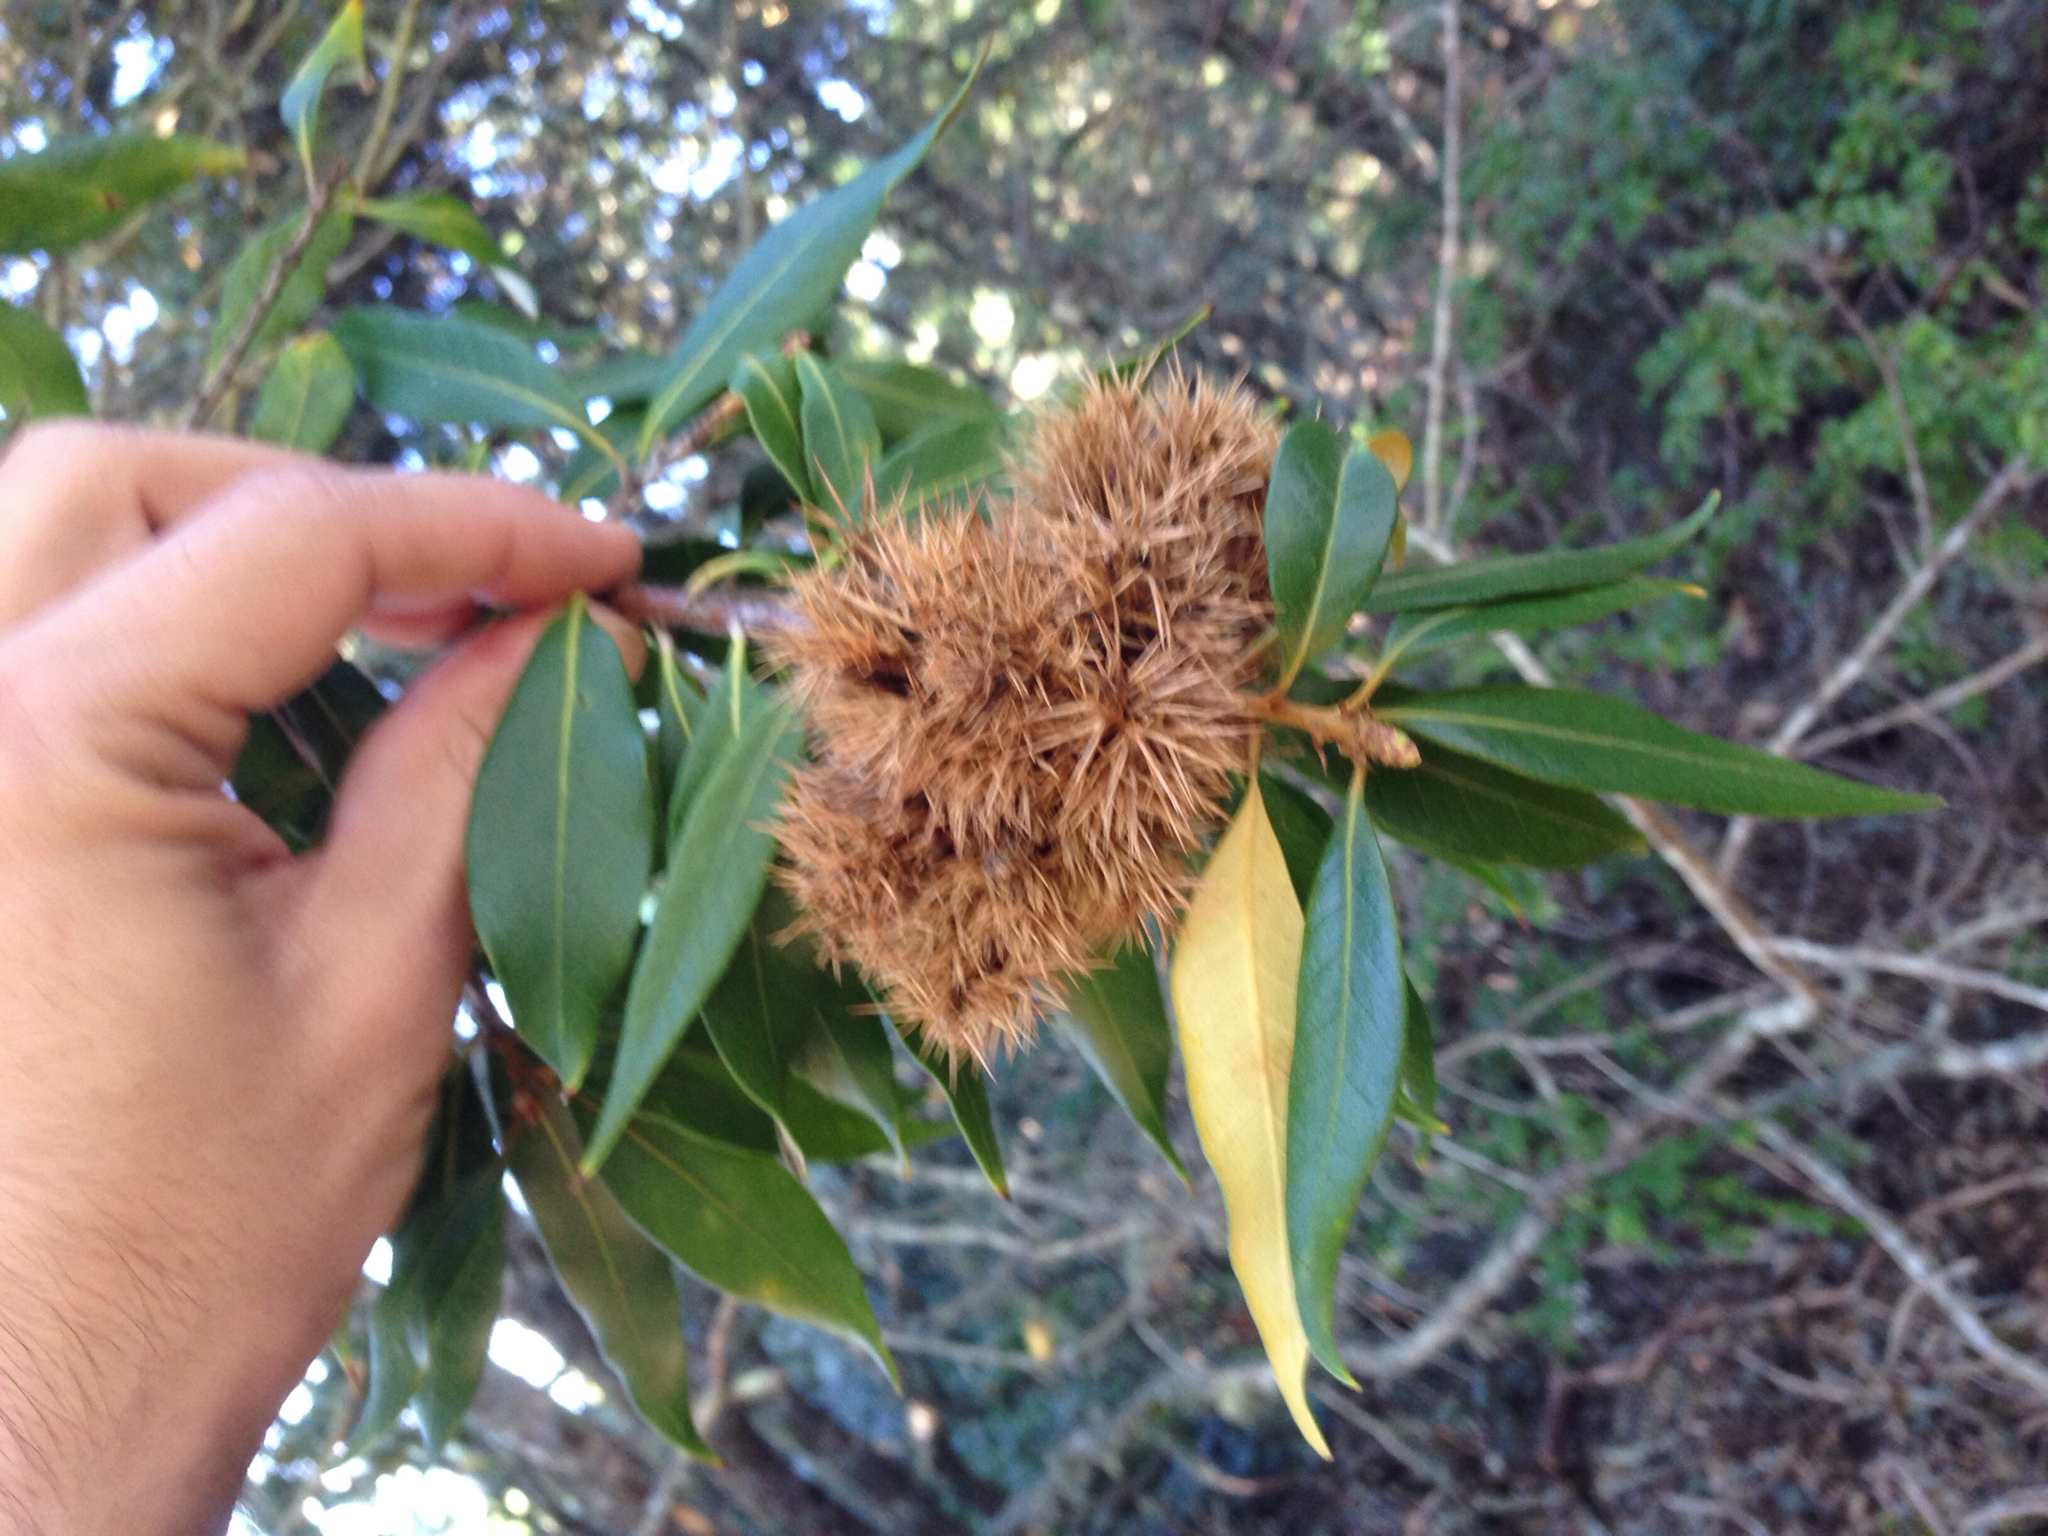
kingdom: Plantae
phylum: Tracheophyta
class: Magnoliopsida
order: Fagales
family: Fagaceae
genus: Chrysolepis
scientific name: Chrysolepis chrysophylla
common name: Giant chinquapin
